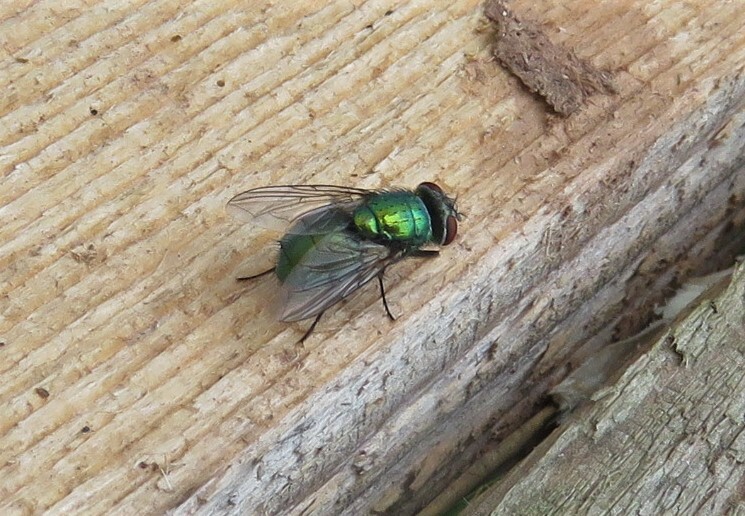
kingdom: Animalia
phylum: Arthropoda
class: Insecta
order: Diptera
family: Calliphoridae
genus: Lucilia
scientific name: Lucilia sericata
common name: Blow fly
